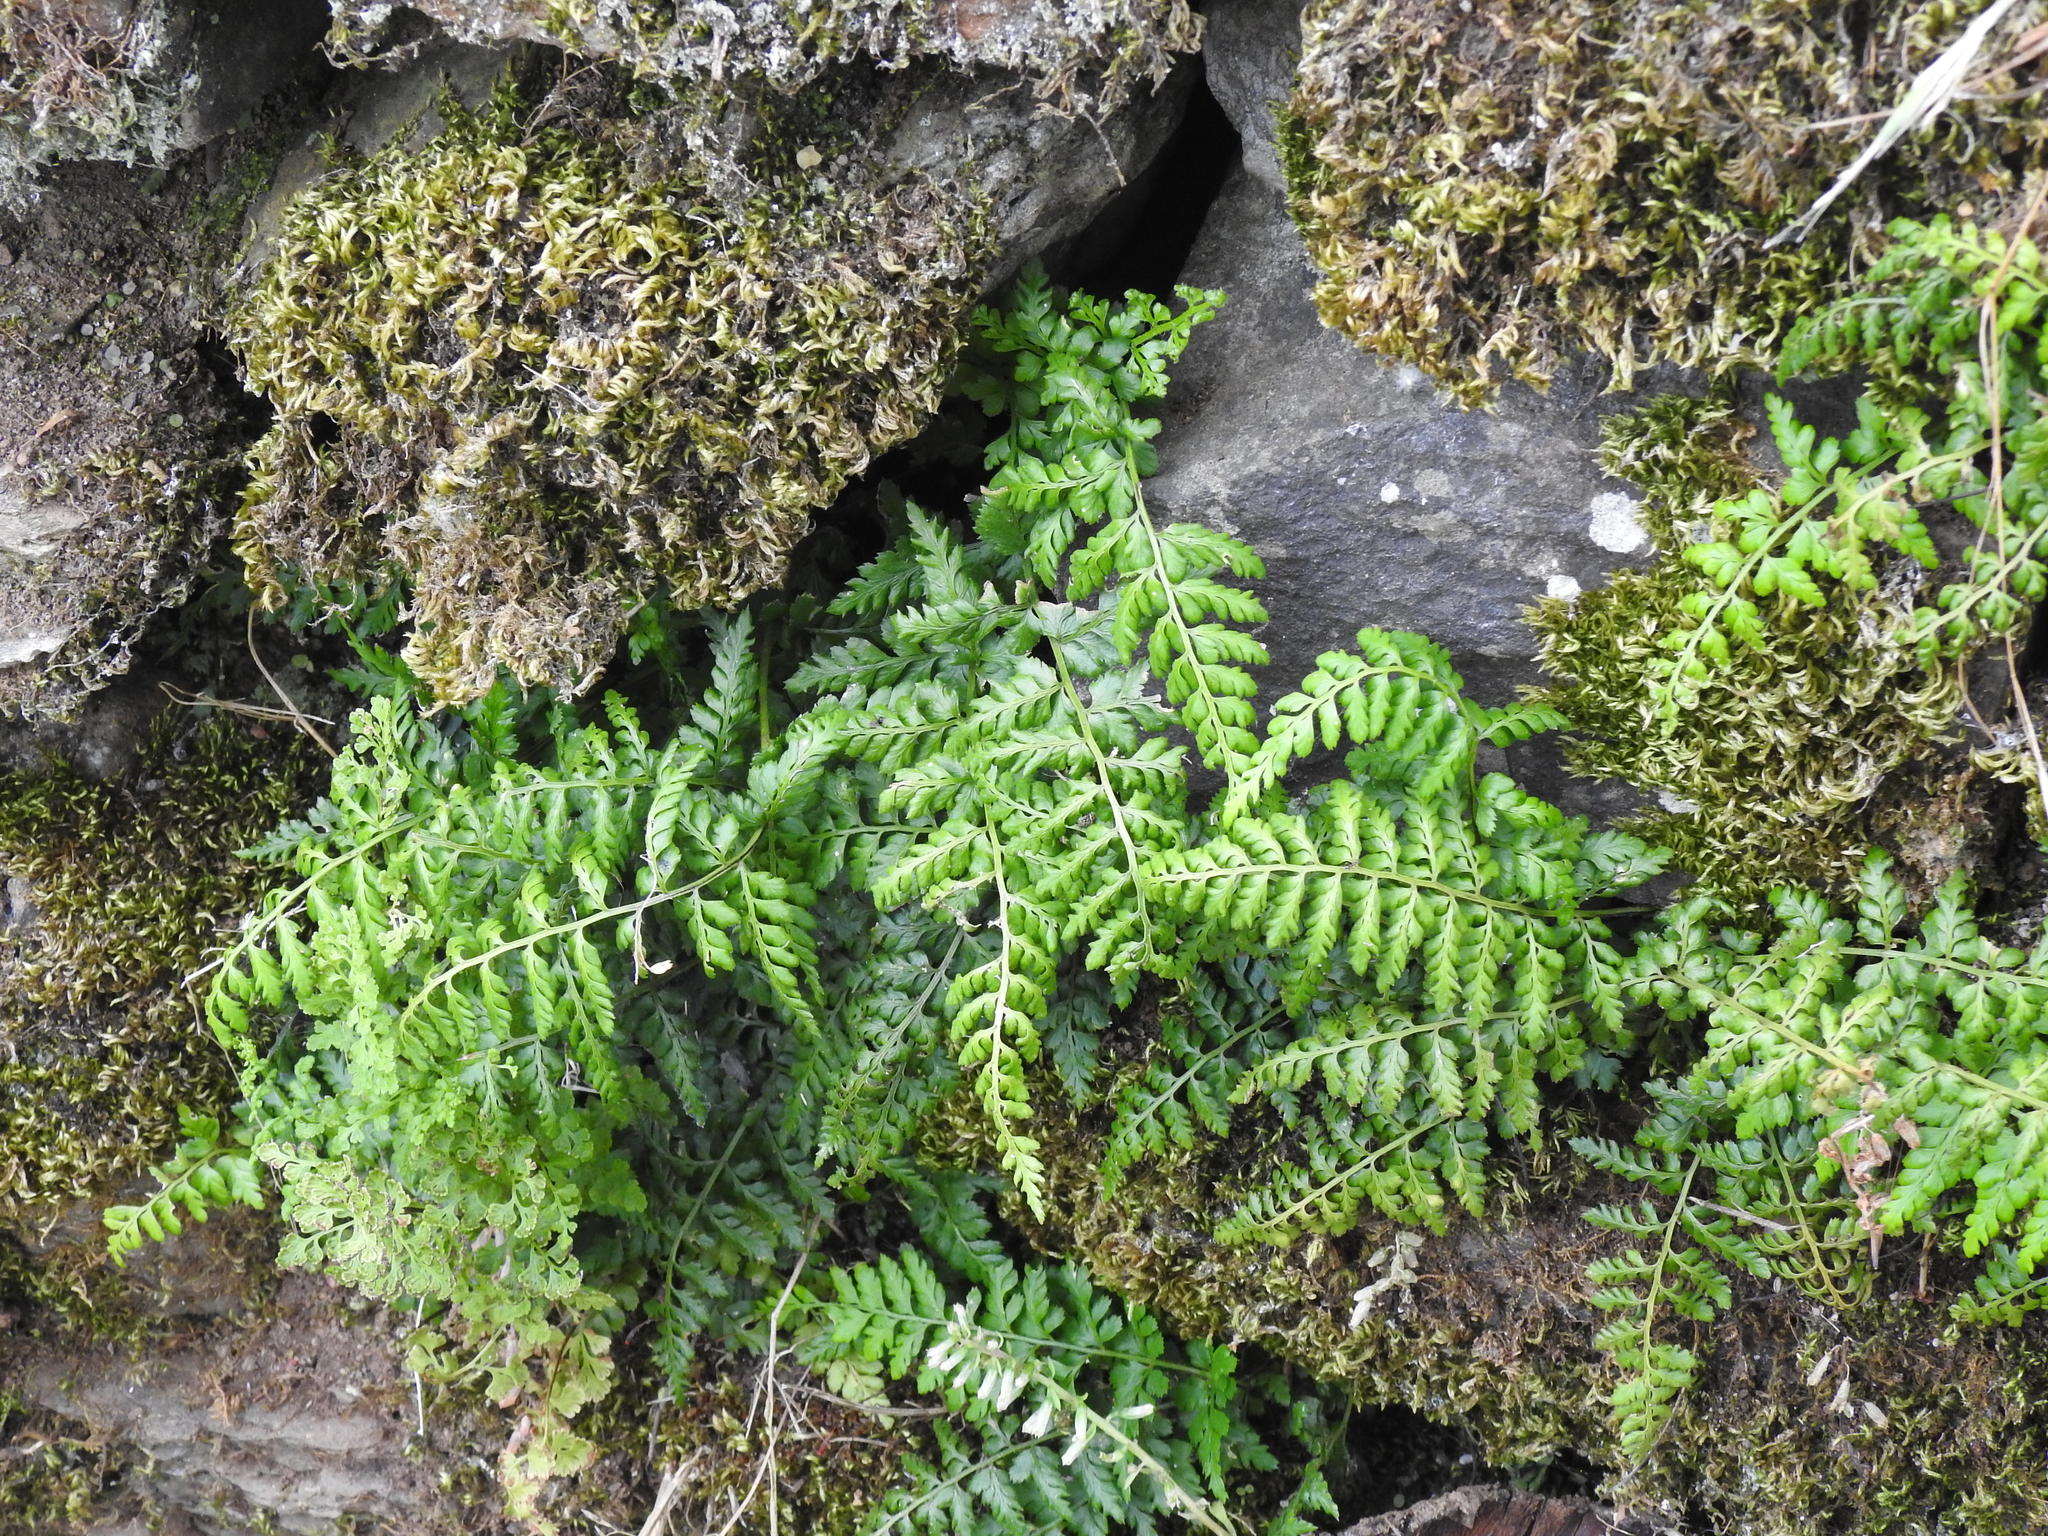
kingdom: Plantae
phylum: Tracheophyta
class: Polypodiopsida
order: Polypodiales
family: Aspleniaceae
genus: Asplenium
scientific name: Asplenium obovatum
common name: Lanceolate spleenwort
